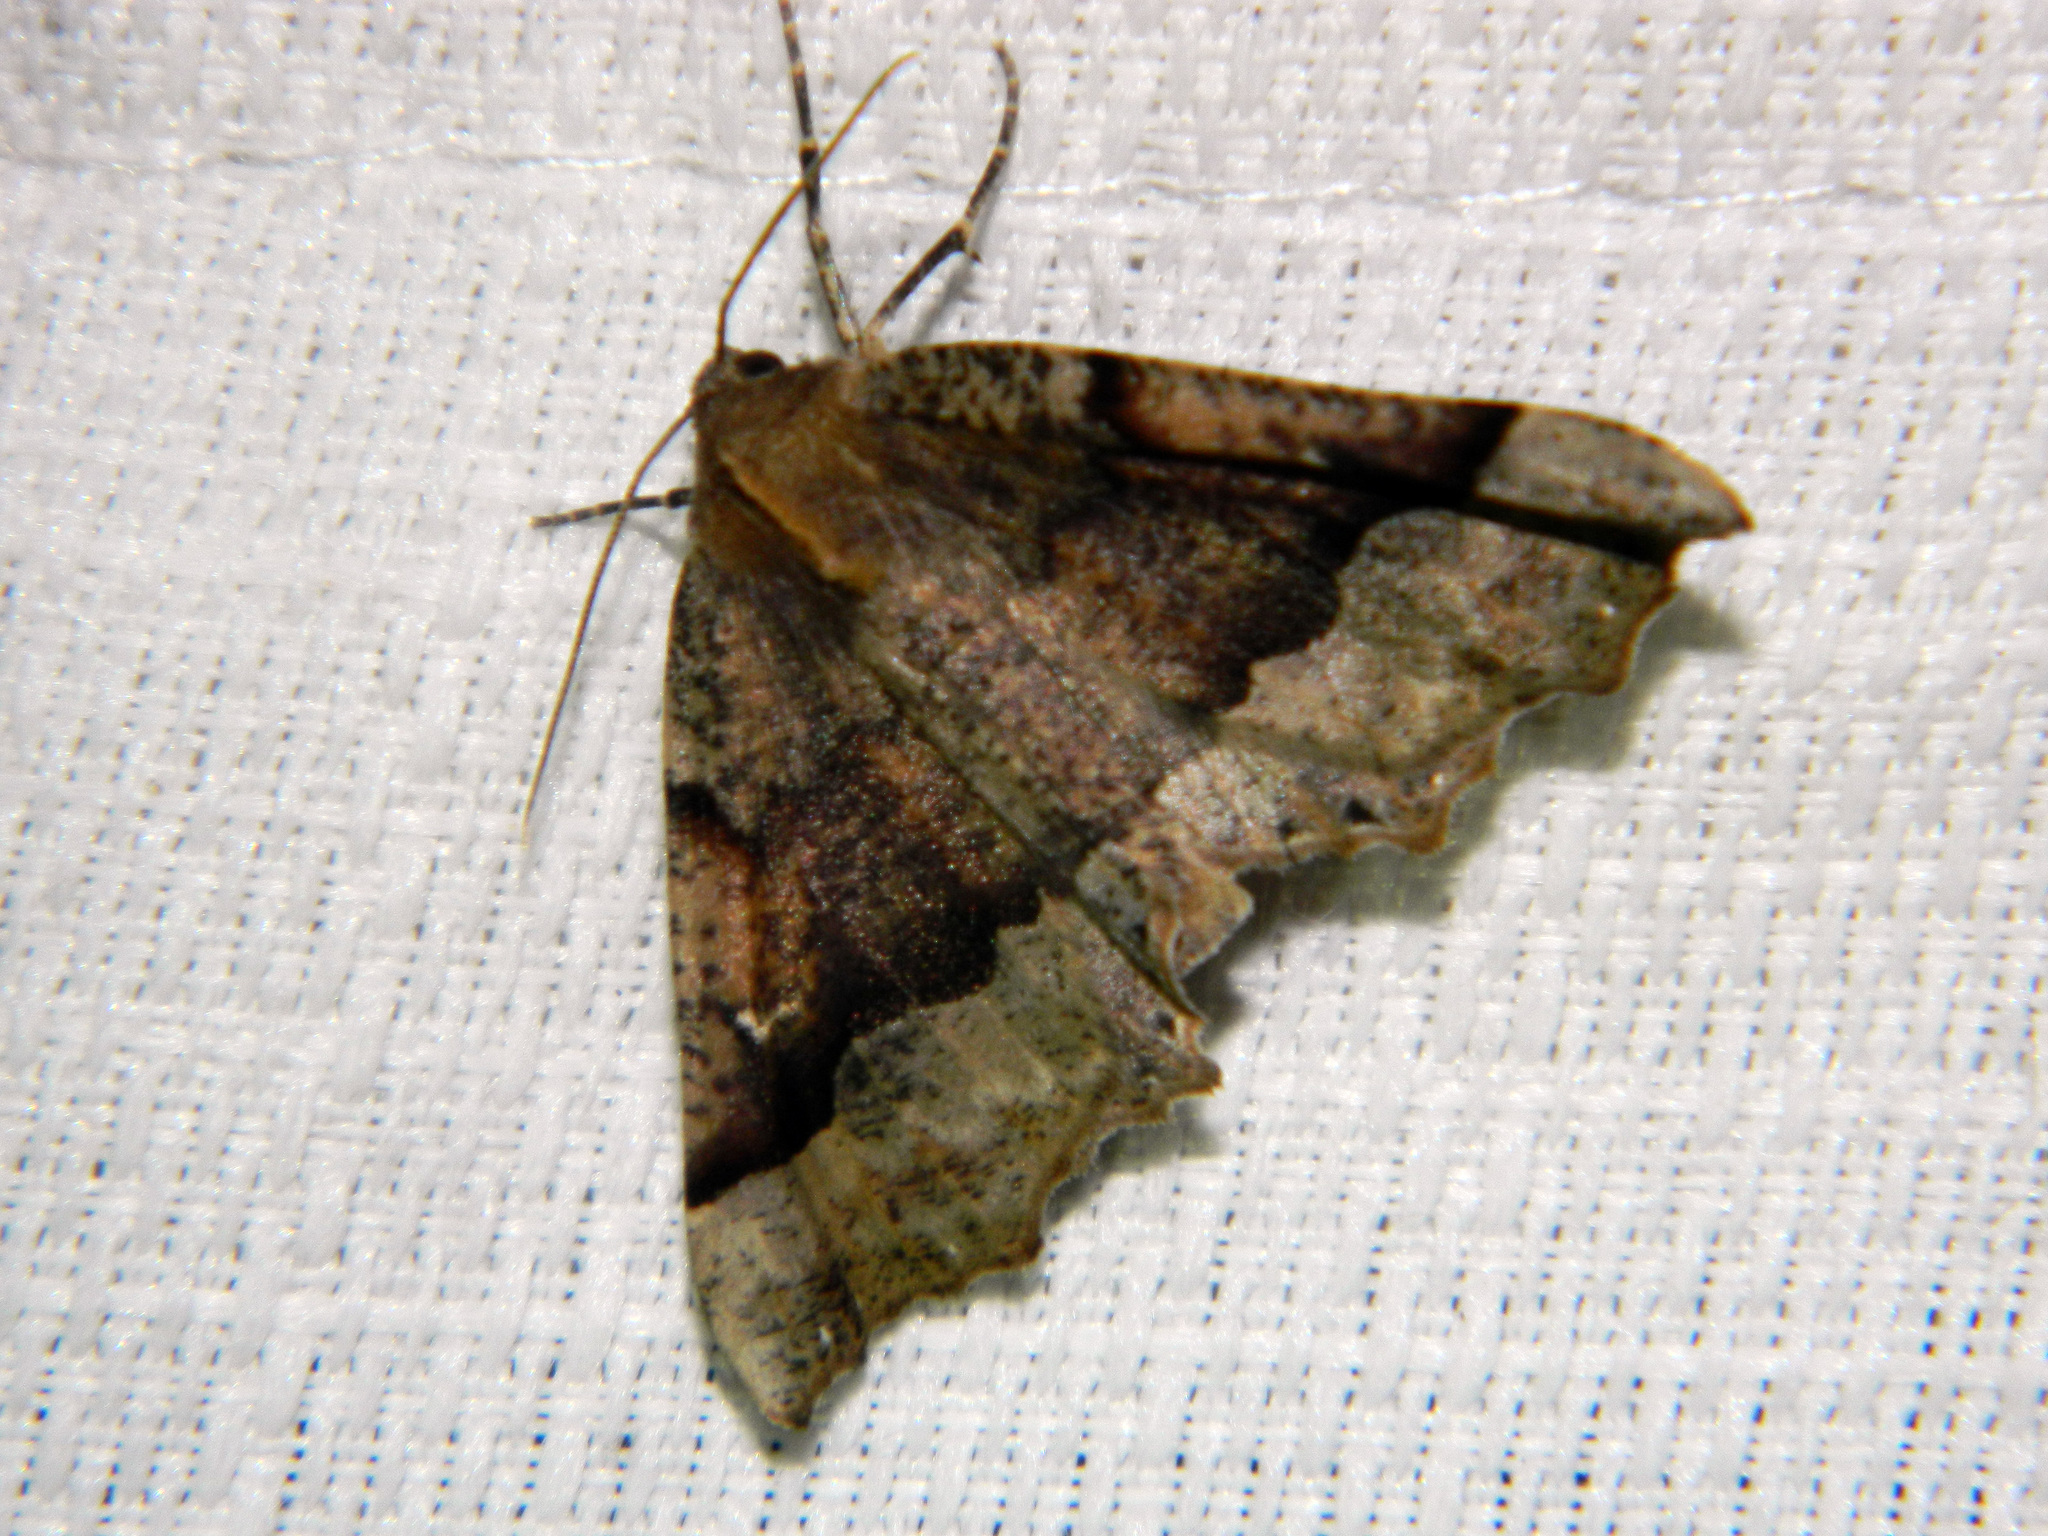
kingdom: Animalia
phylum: Arthropoda
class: Insecta
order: Lepidoptera
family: Geometridae
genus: Pero
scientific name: Pero morrisonaria
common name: Morrison's pero
